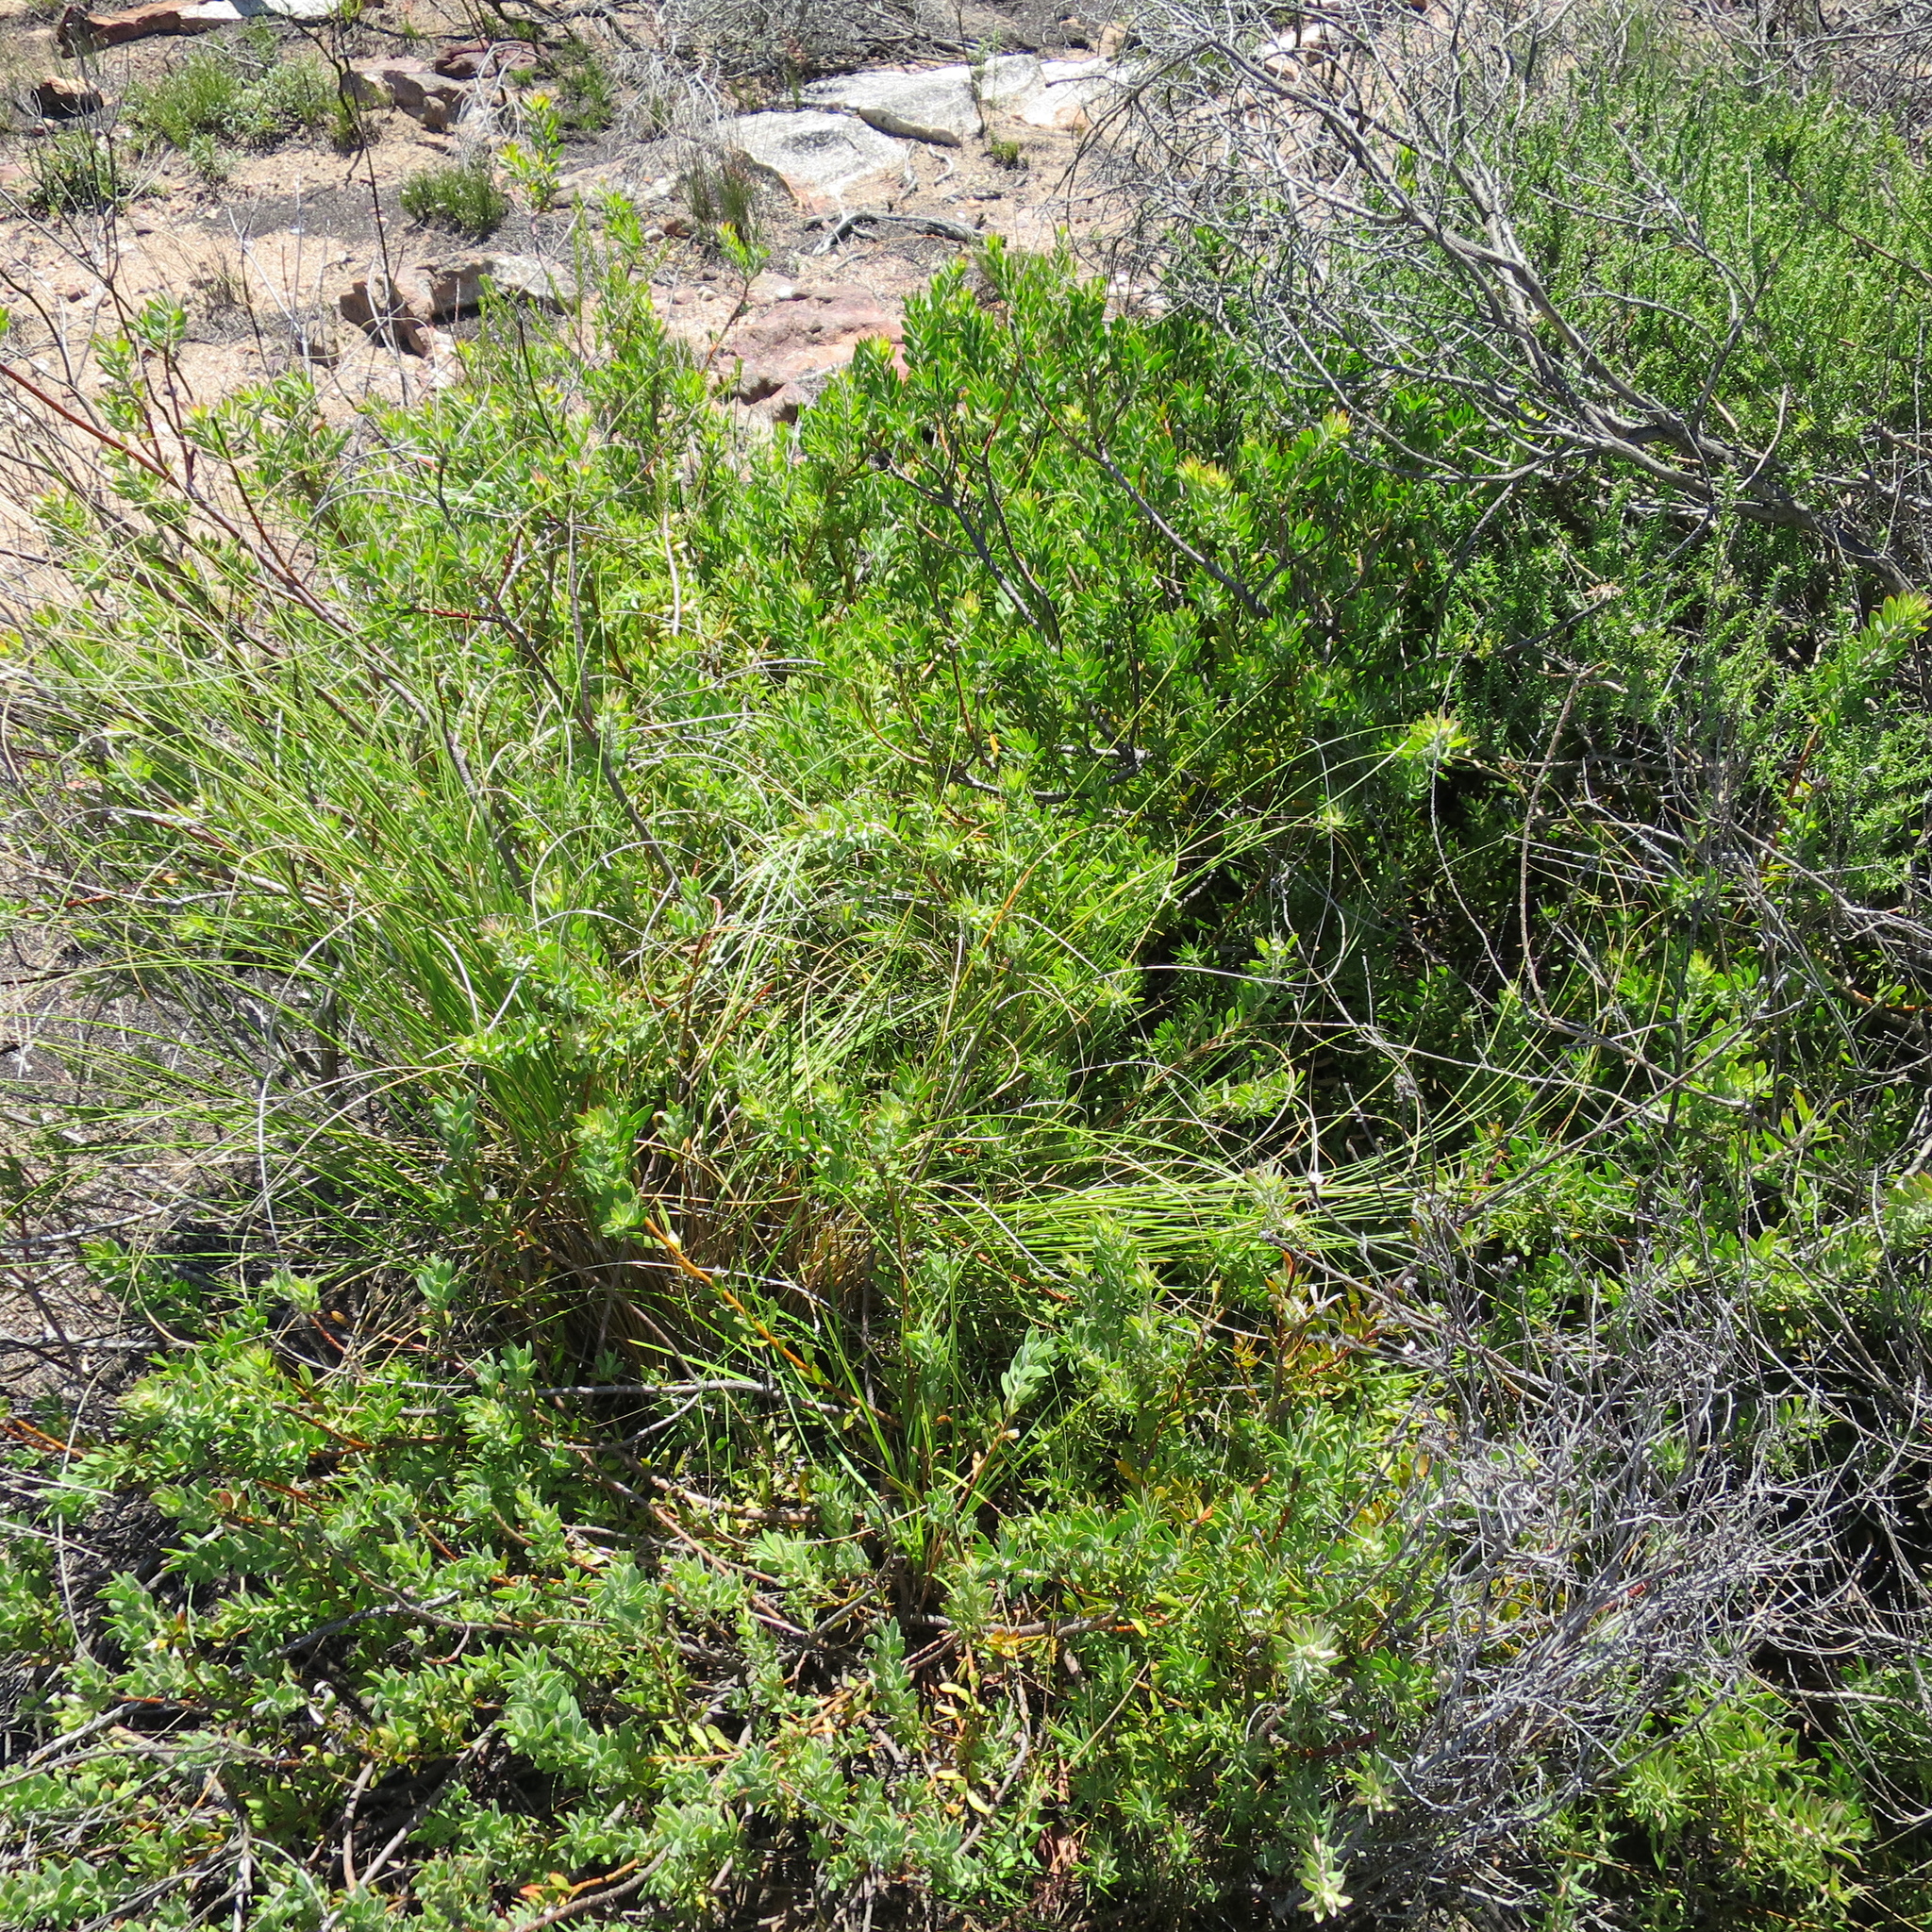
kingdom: Plantae
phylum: Tracheophyta
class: Magnoliopsida
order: Proteales
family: Proteaceae
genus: Leucospermum
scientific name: Leucospermum royenifolium
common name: Eastern pincushion
